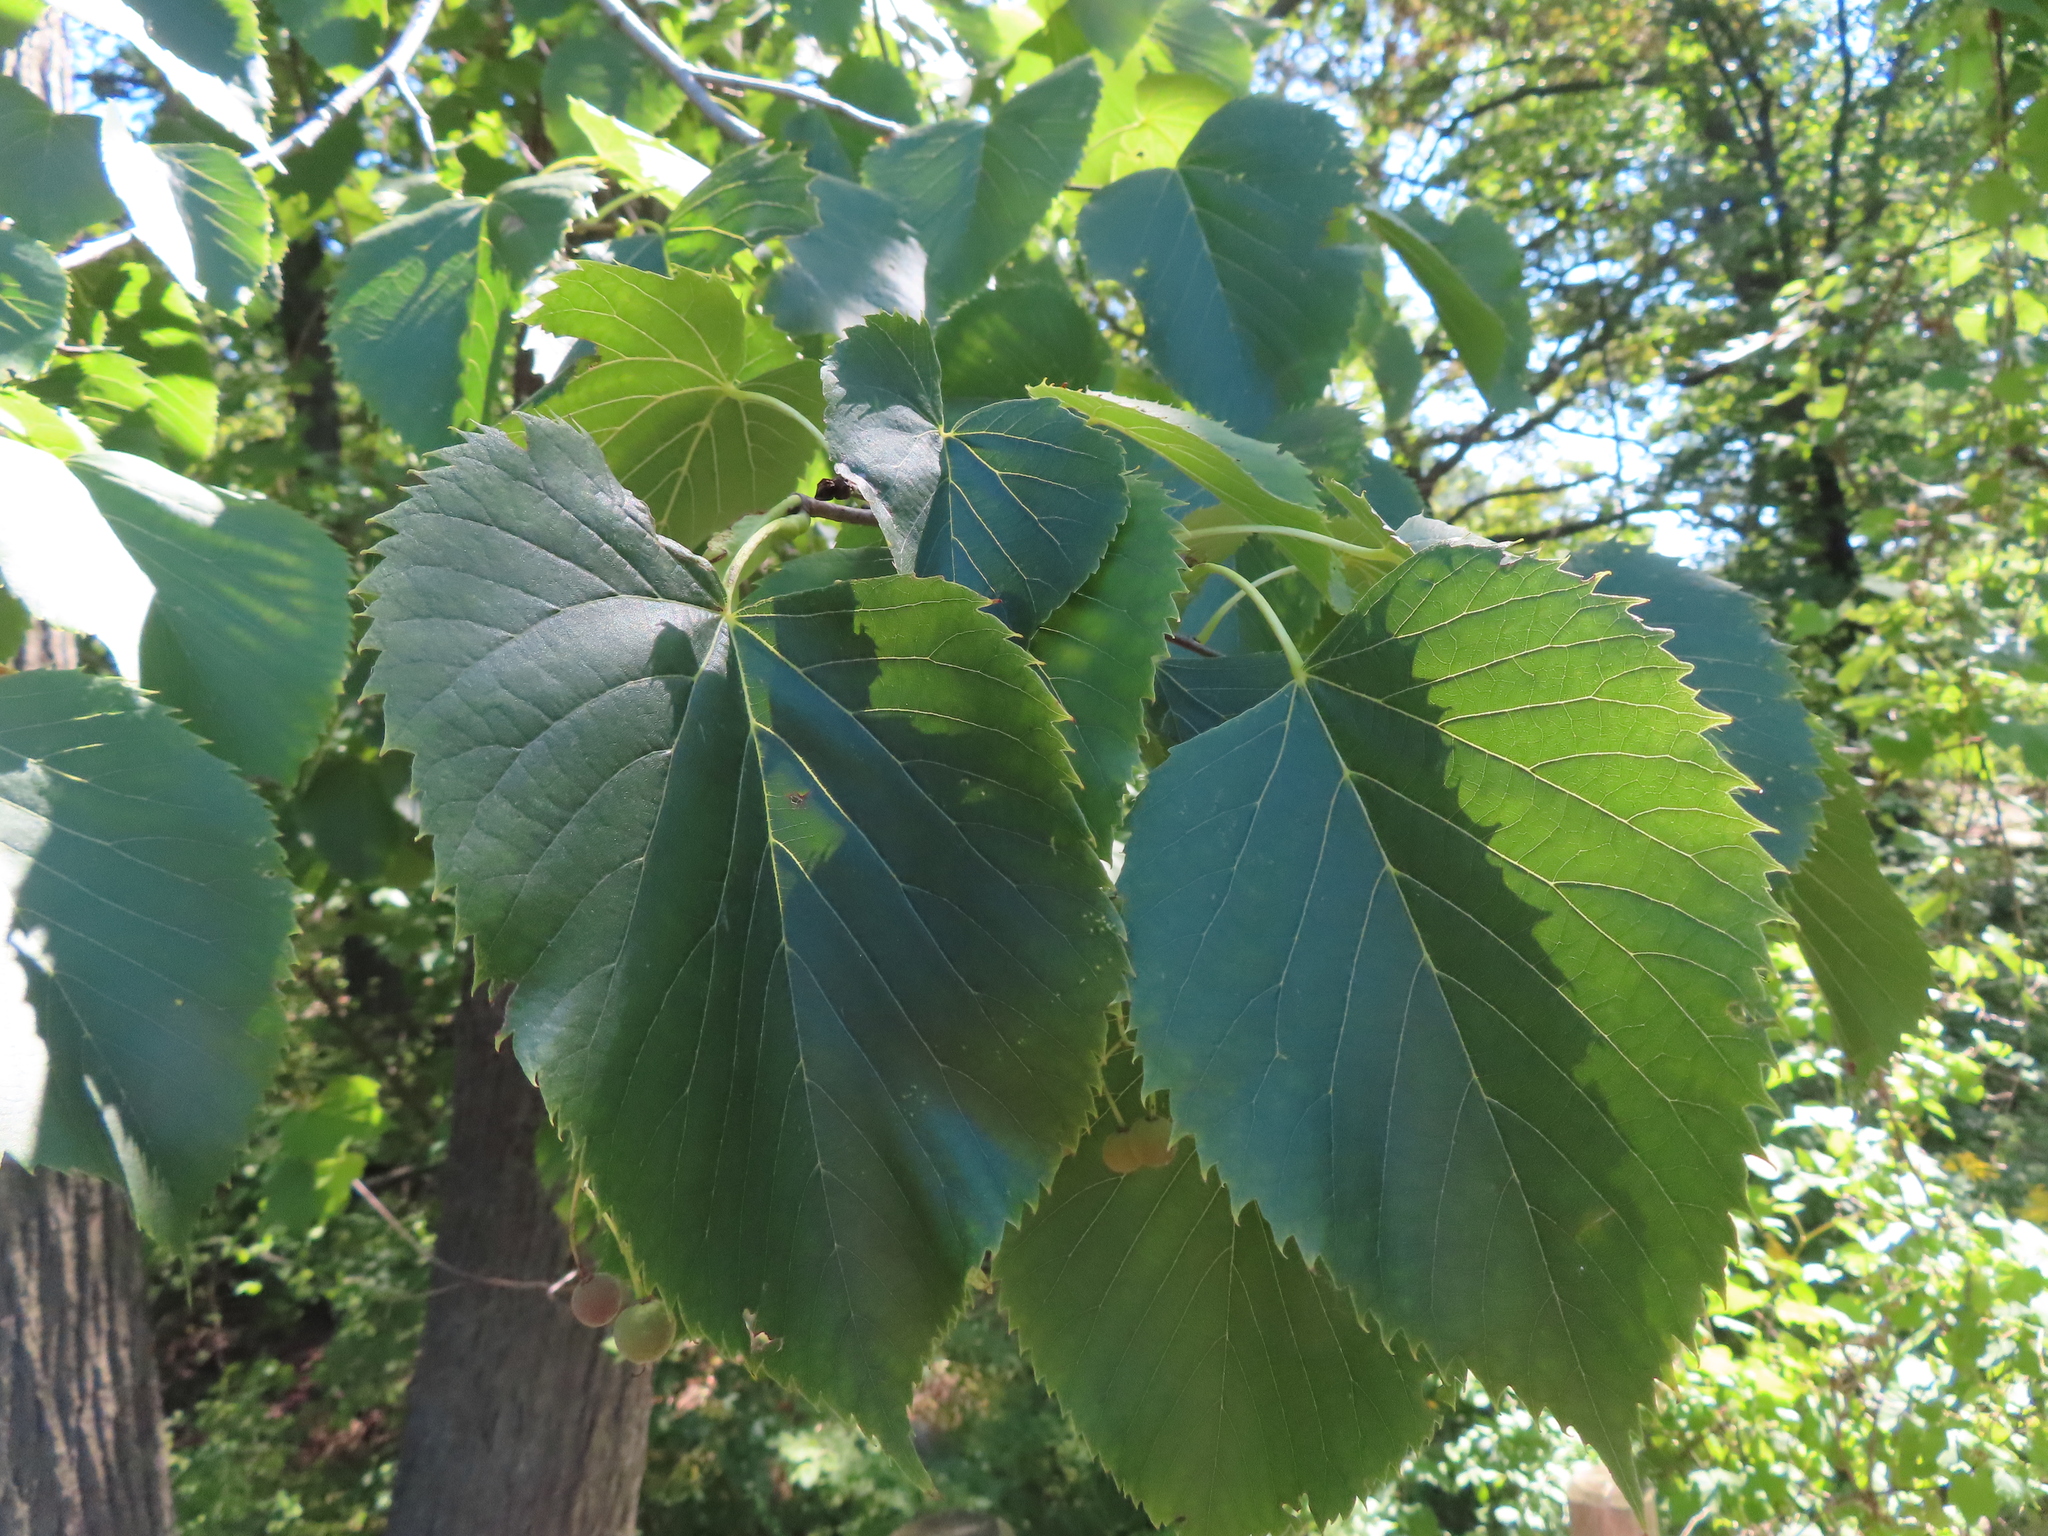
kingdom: Plantae
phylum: Tracheophyta
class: Magnoliopsida
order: Malvales
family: Malvaceae
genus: Tilia
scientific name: Tilia americana
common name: Basswood
